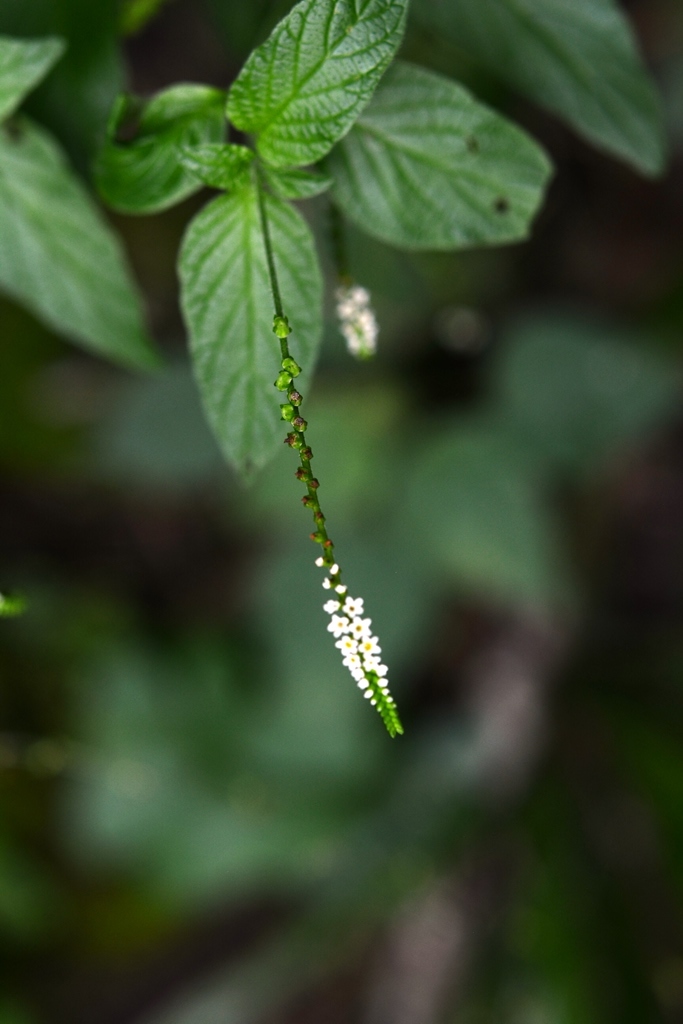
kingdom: Plantae
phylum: Tracheophyta
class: Magnoliopsida
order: Boraginales
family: Heliotropiaceae
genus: Heliotropium
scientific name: Heliotropium angiospermum
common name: Eye bright
